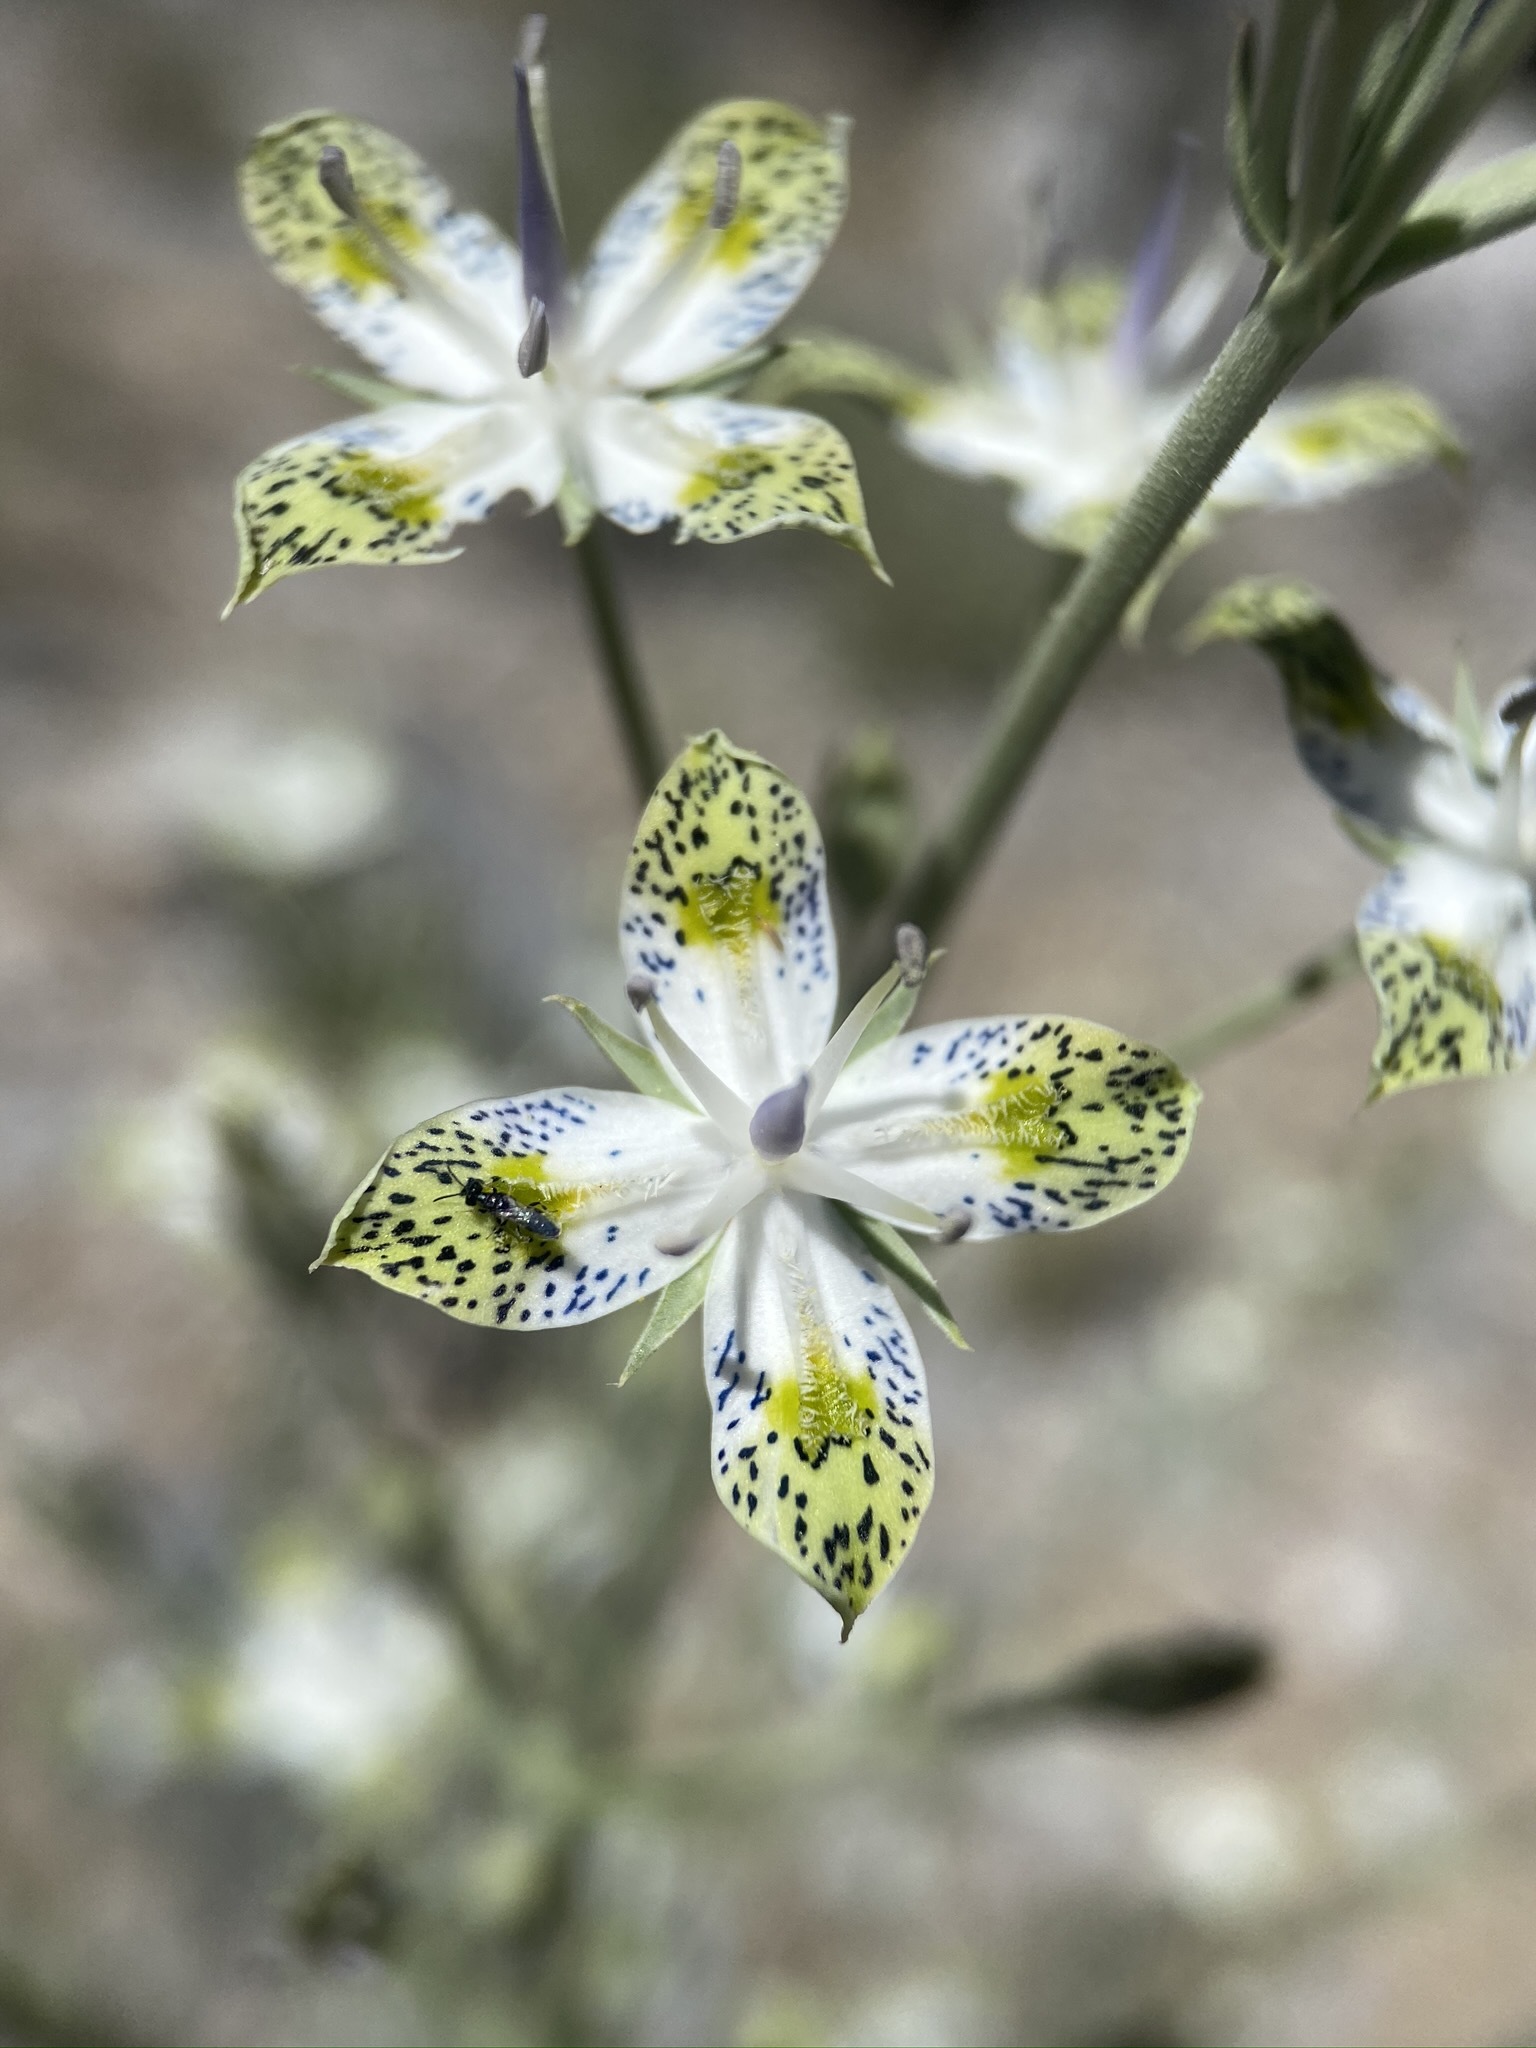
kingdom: Plantae
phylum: Tracheophyta
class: Magnoliopsida
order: Gentianales
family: Gentianaceae
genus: Frasera
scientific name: Frasera albomarginata
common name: Desert frasera
